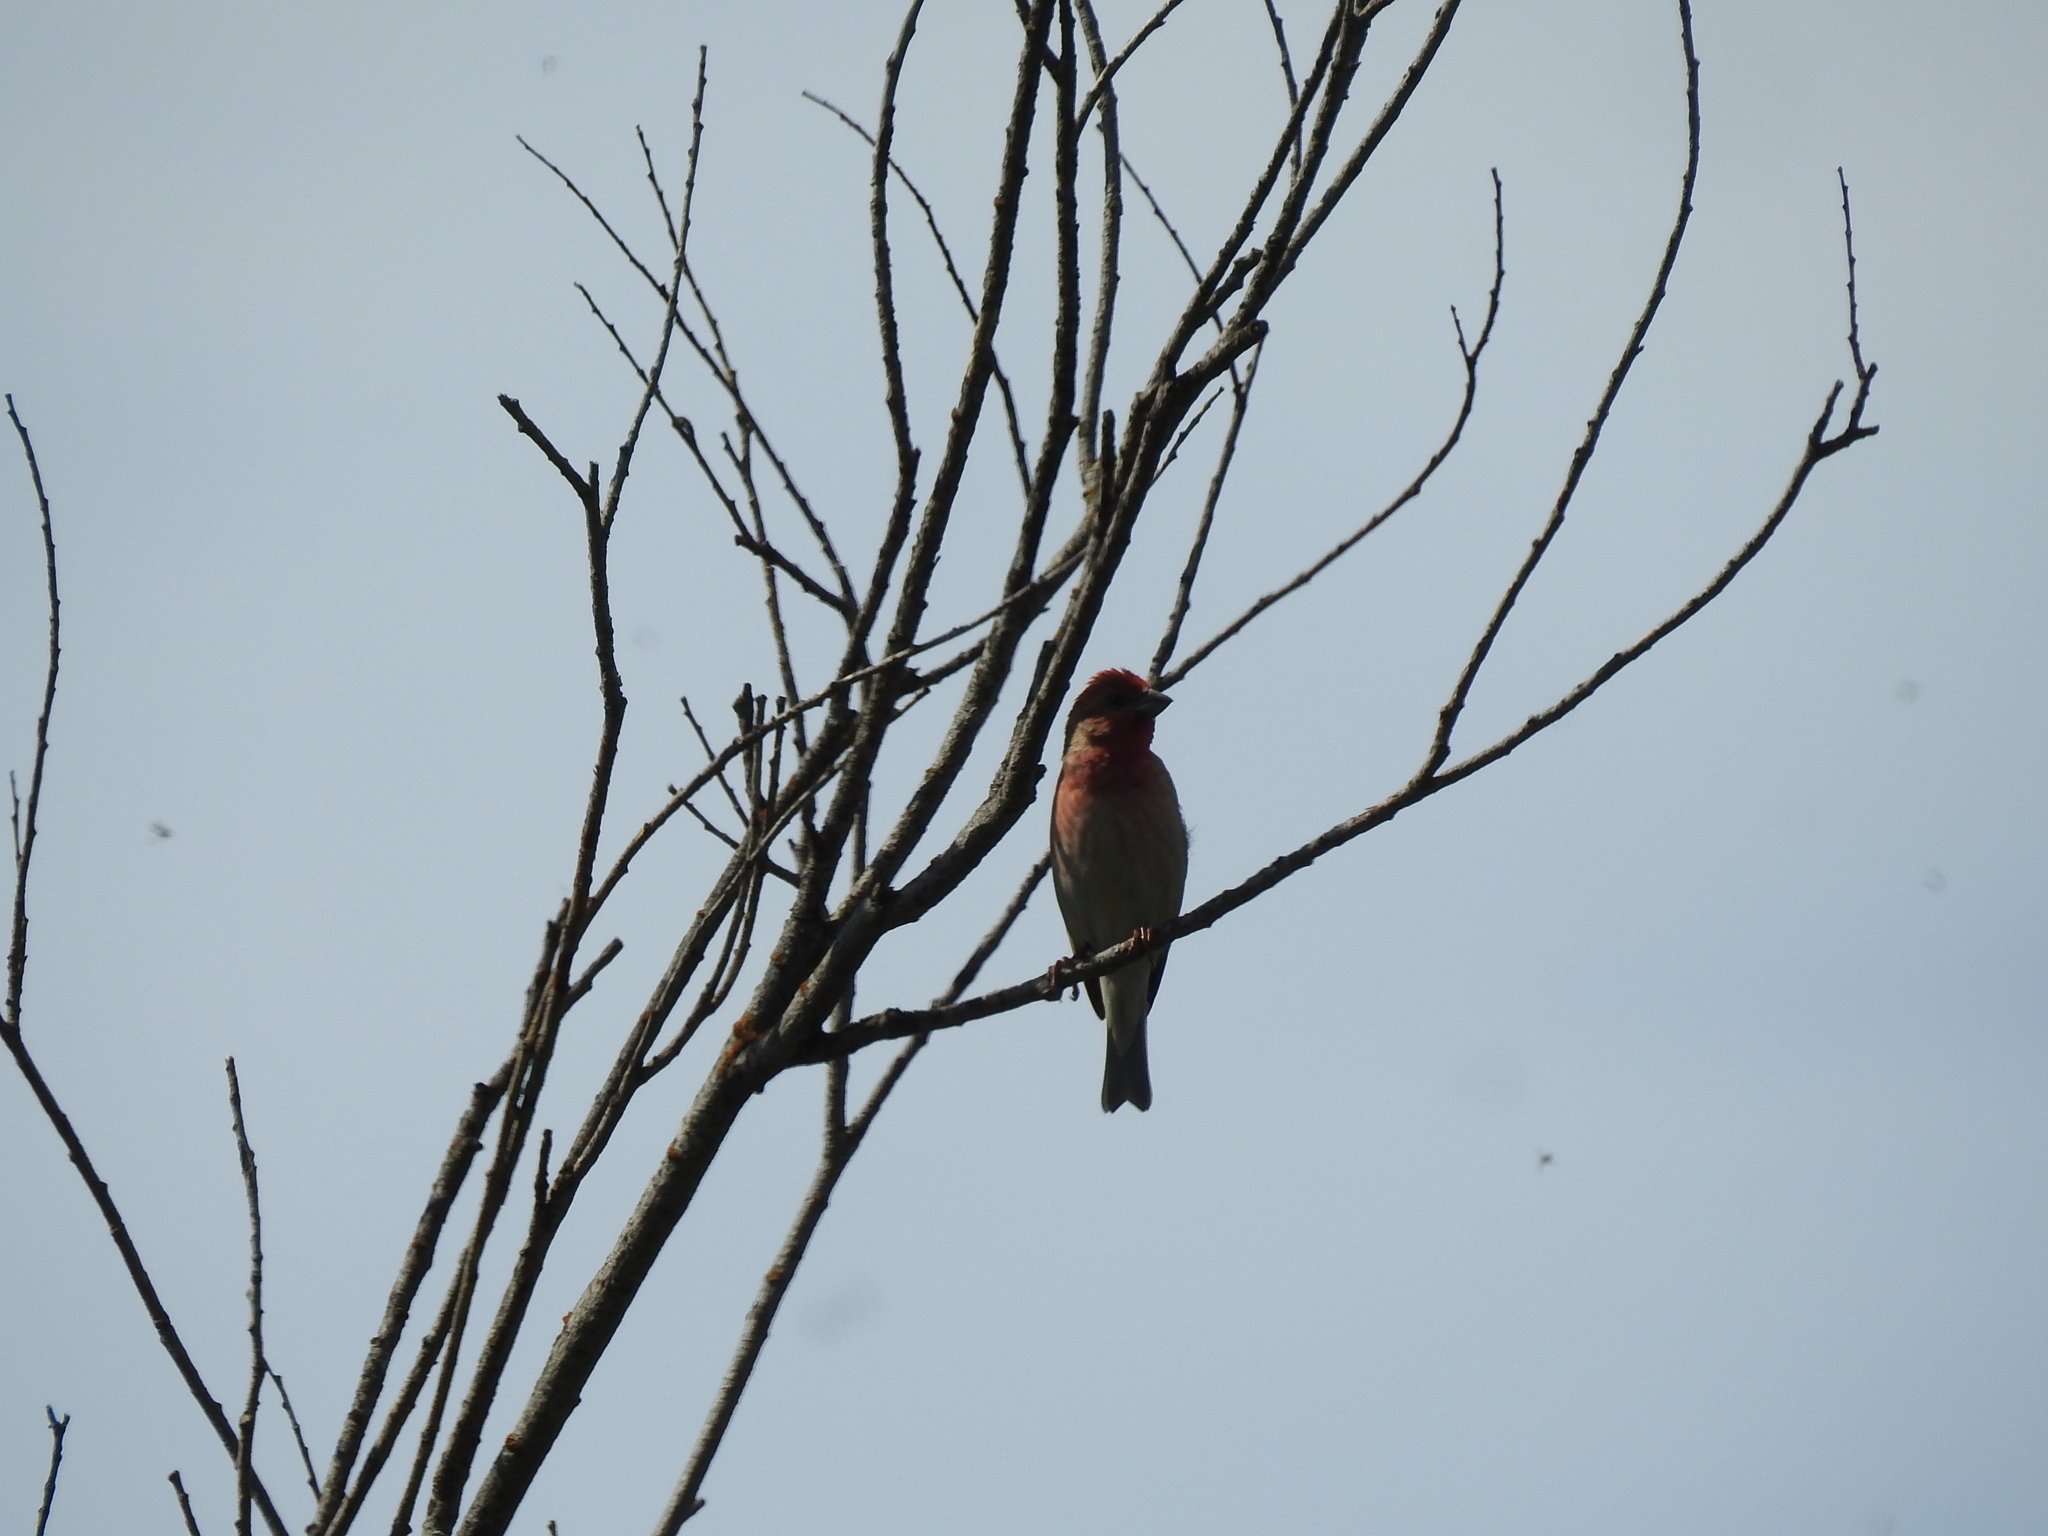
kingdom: Animalia
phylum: Chordata
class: Aves
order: Passeriformes
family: Fringillidae
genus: Carpodacus
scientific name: Carpodacus erythrinus
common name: Common rosefinch
